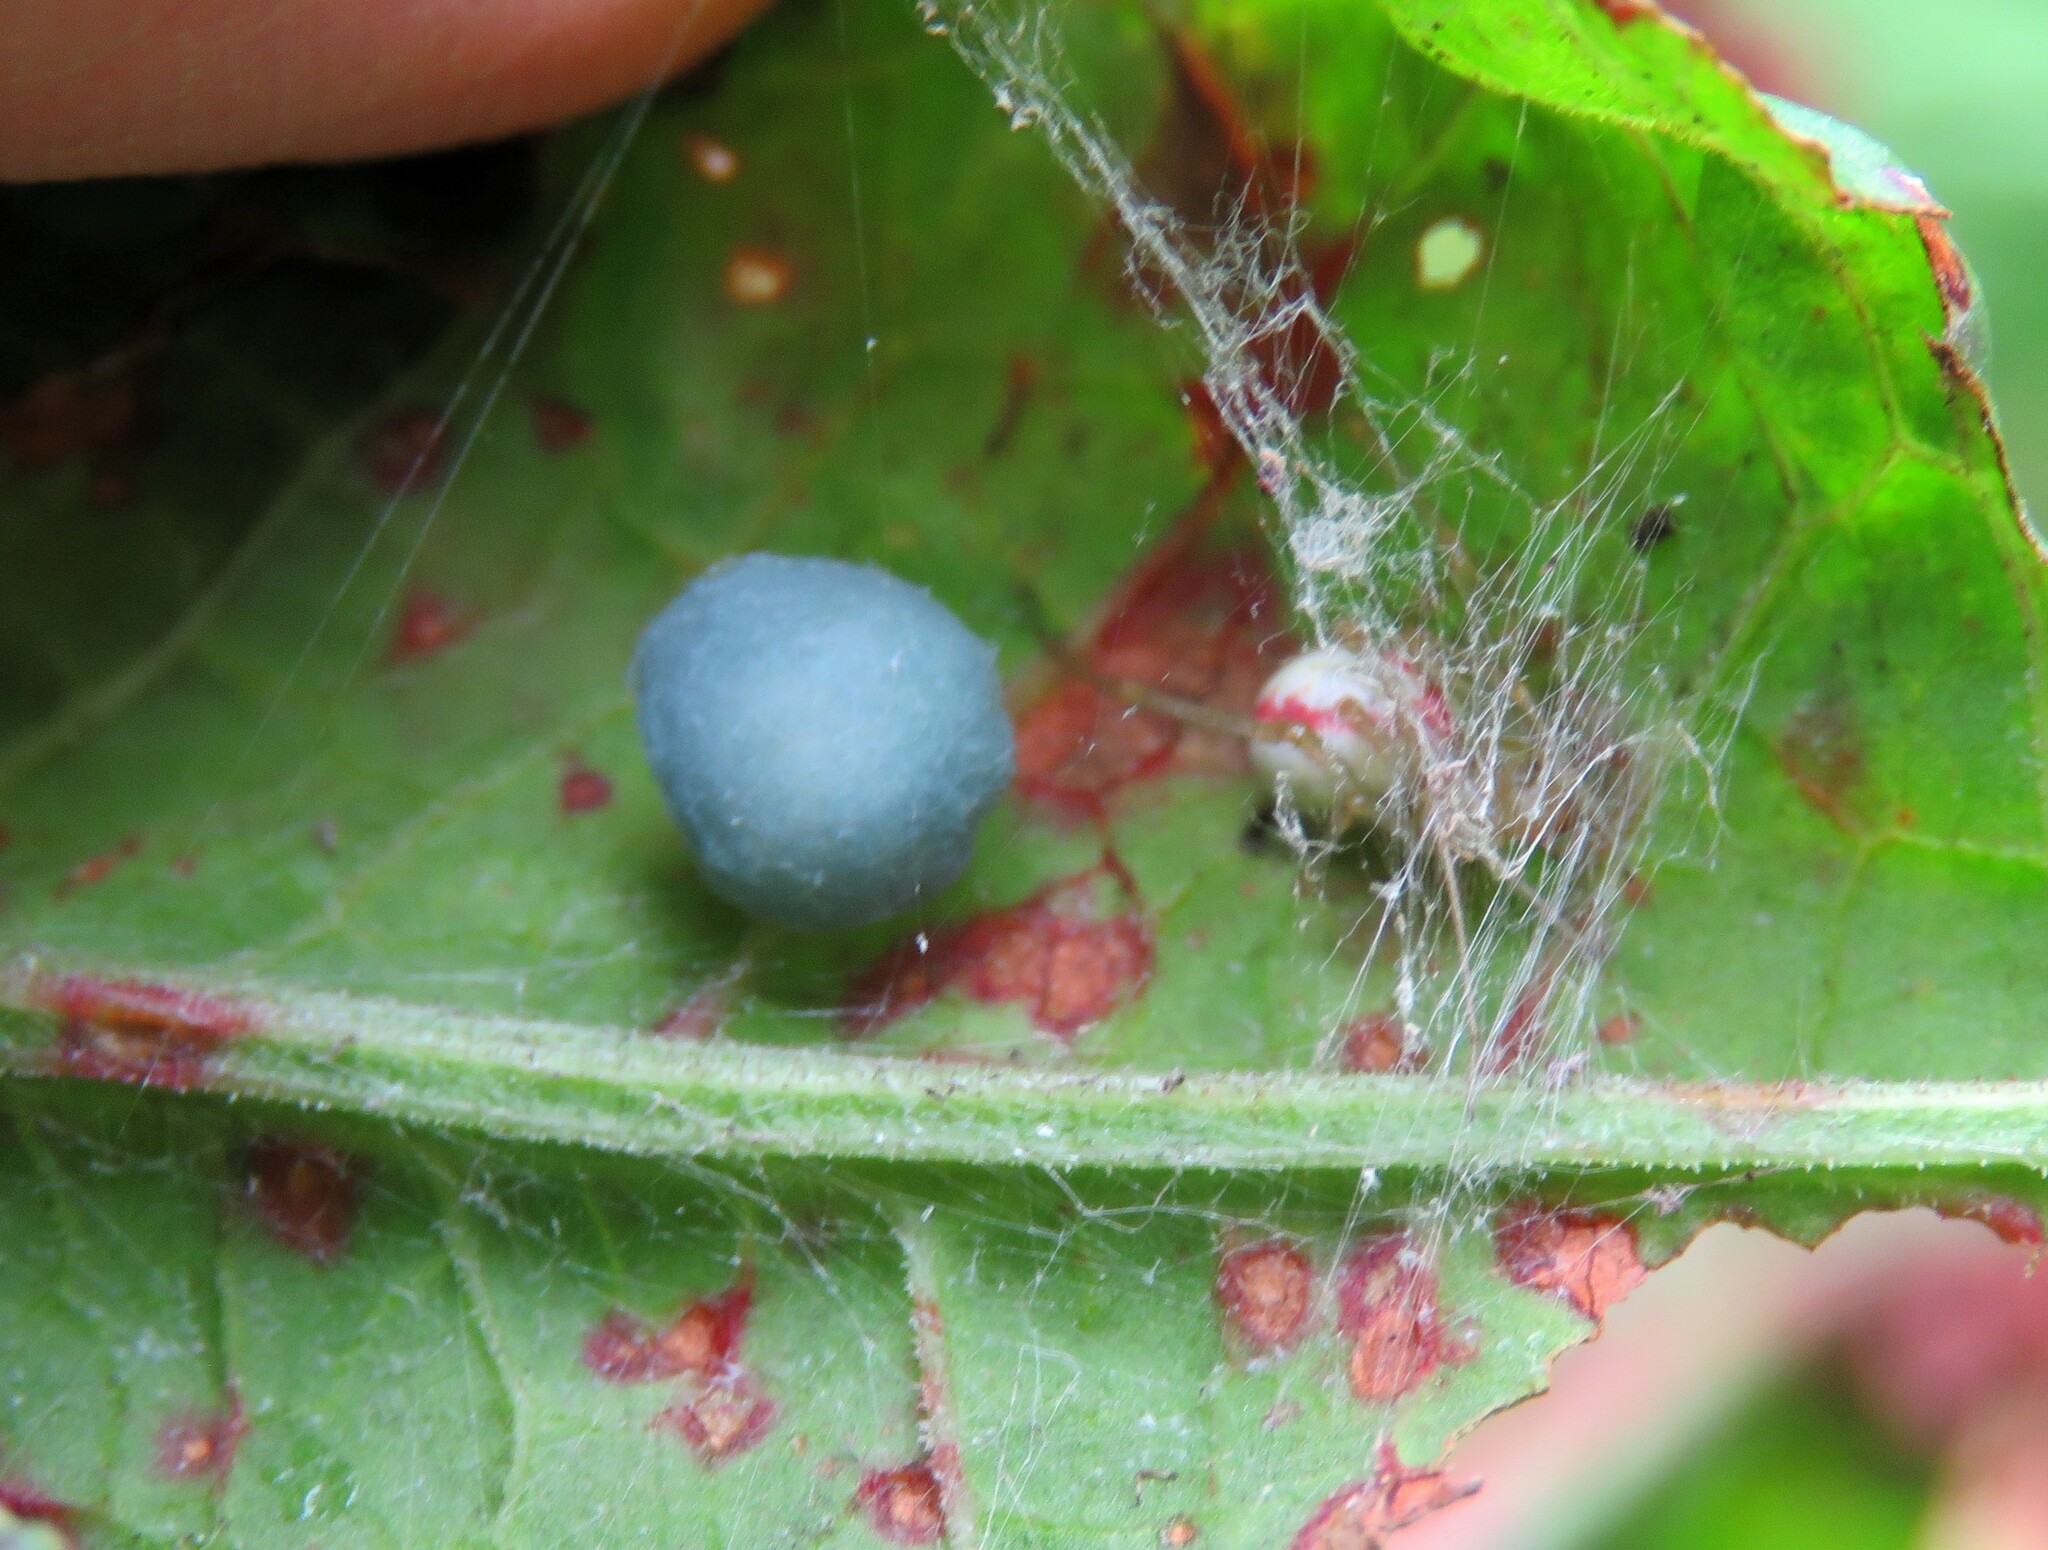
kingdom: Animalia
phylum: Arthropoda
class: Arachnida
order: Araneae
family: Theridiidae
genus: Enoplognatha
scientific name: Enoplognatha ovata
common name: Common candy-striped spider
